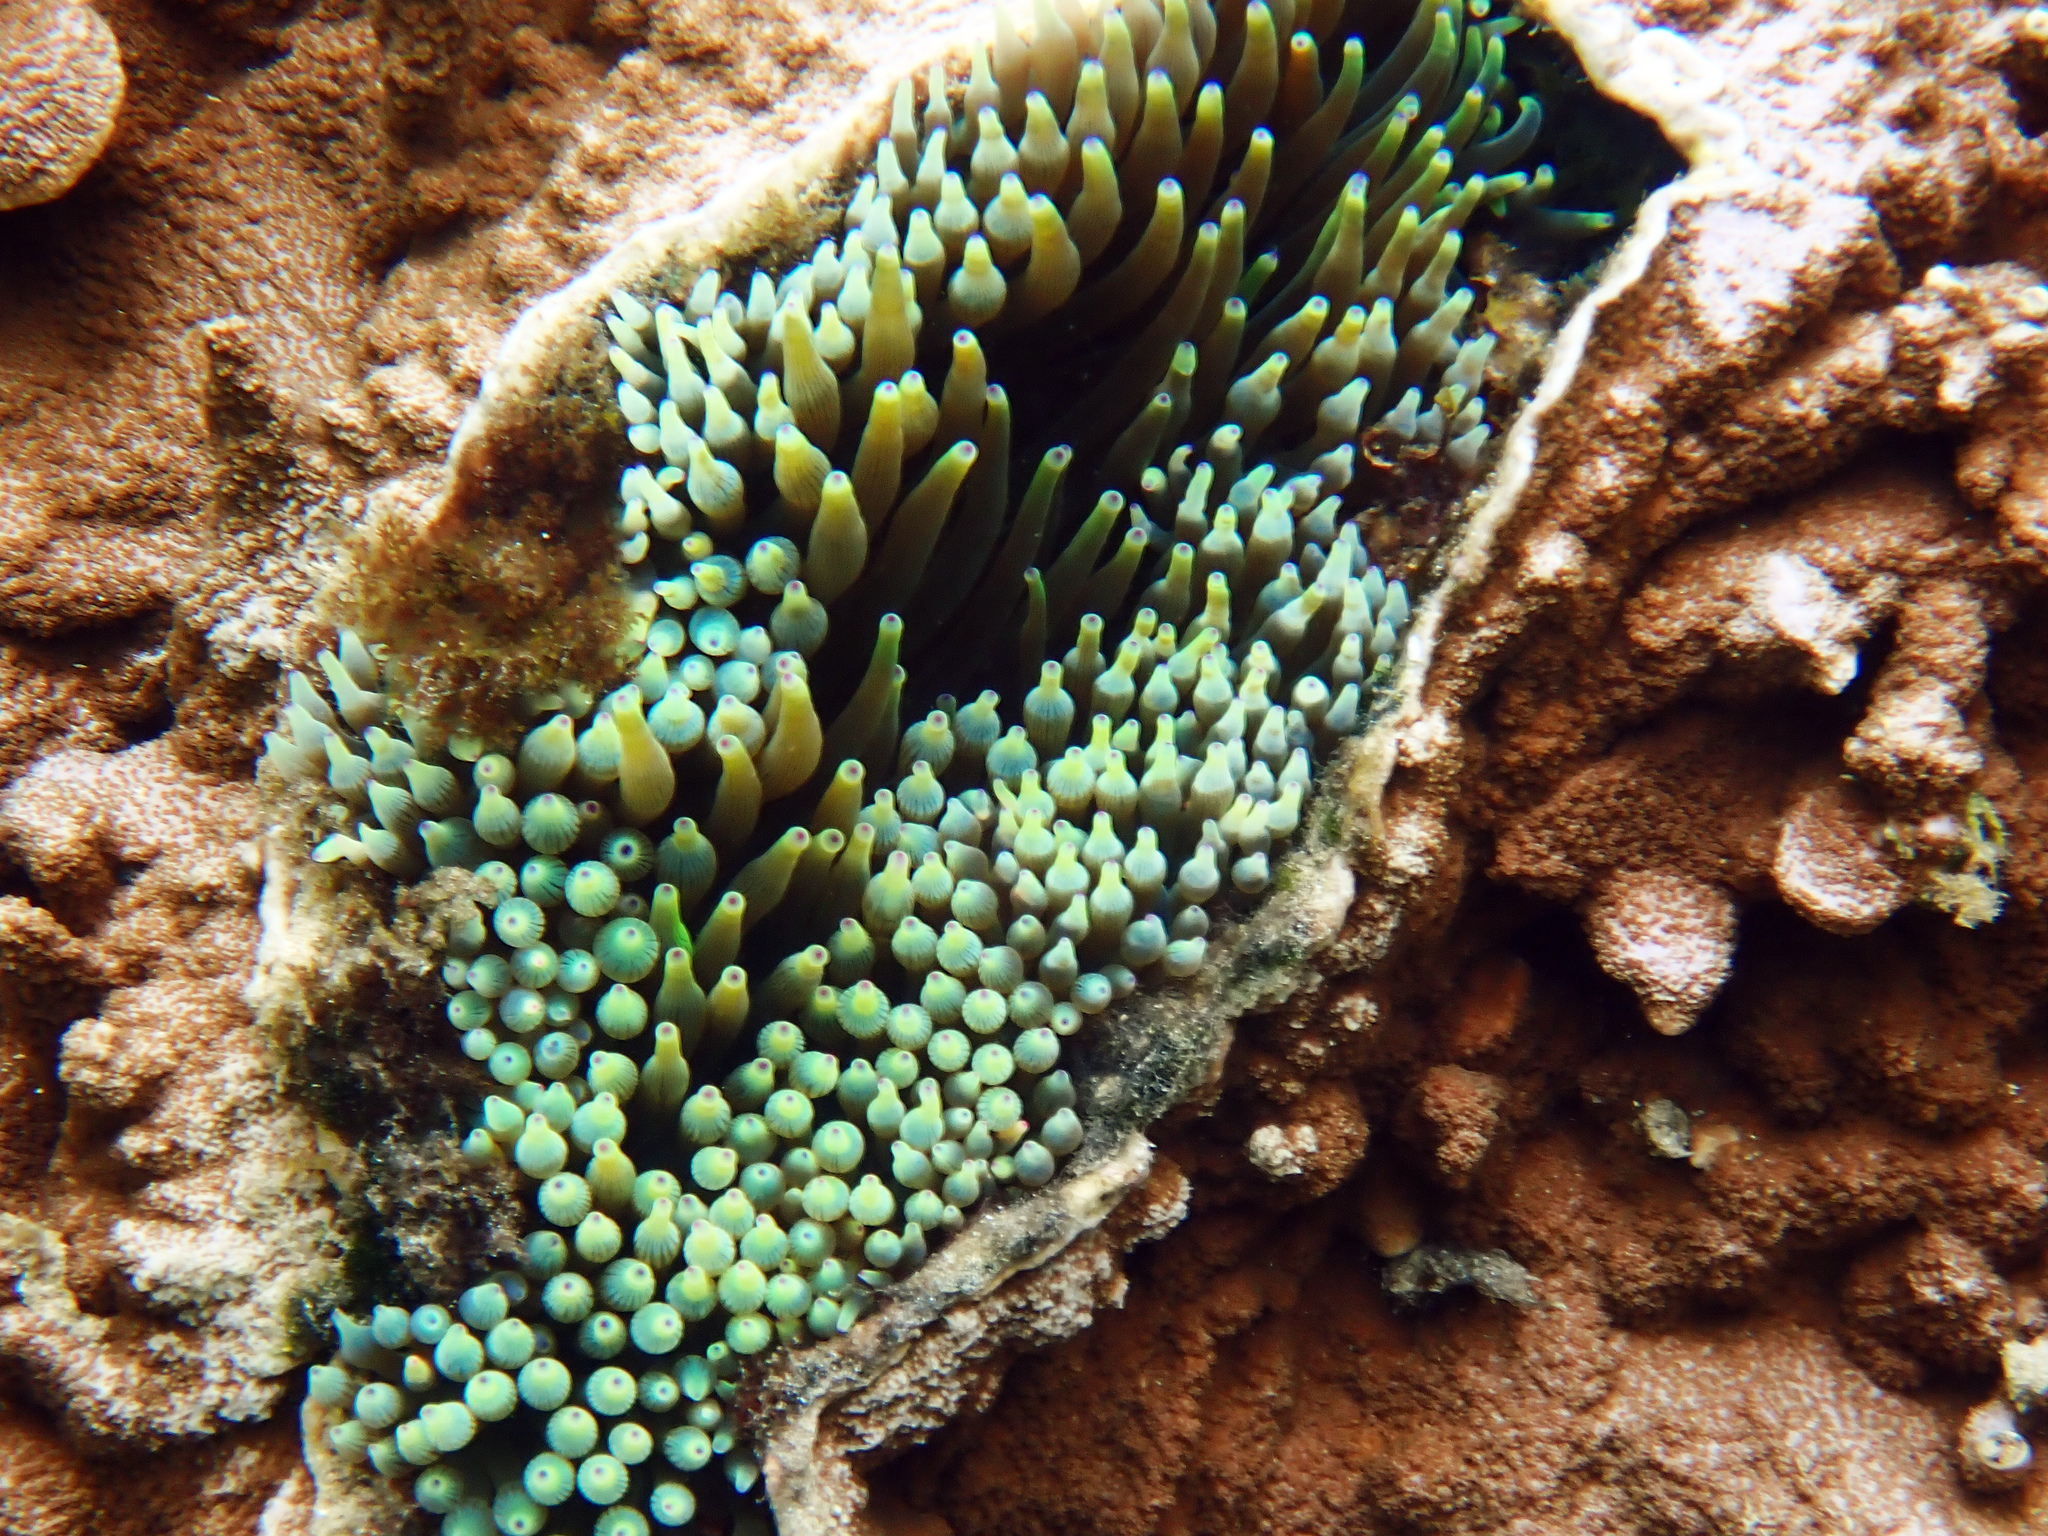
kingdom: Animalia
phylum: Cnidaria
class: Anthozoa
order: Actiniaria
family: Actiniidae
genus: Entacmaea
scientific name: Entacmaea quadricolor
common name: Bulb tentacle sea anemone
